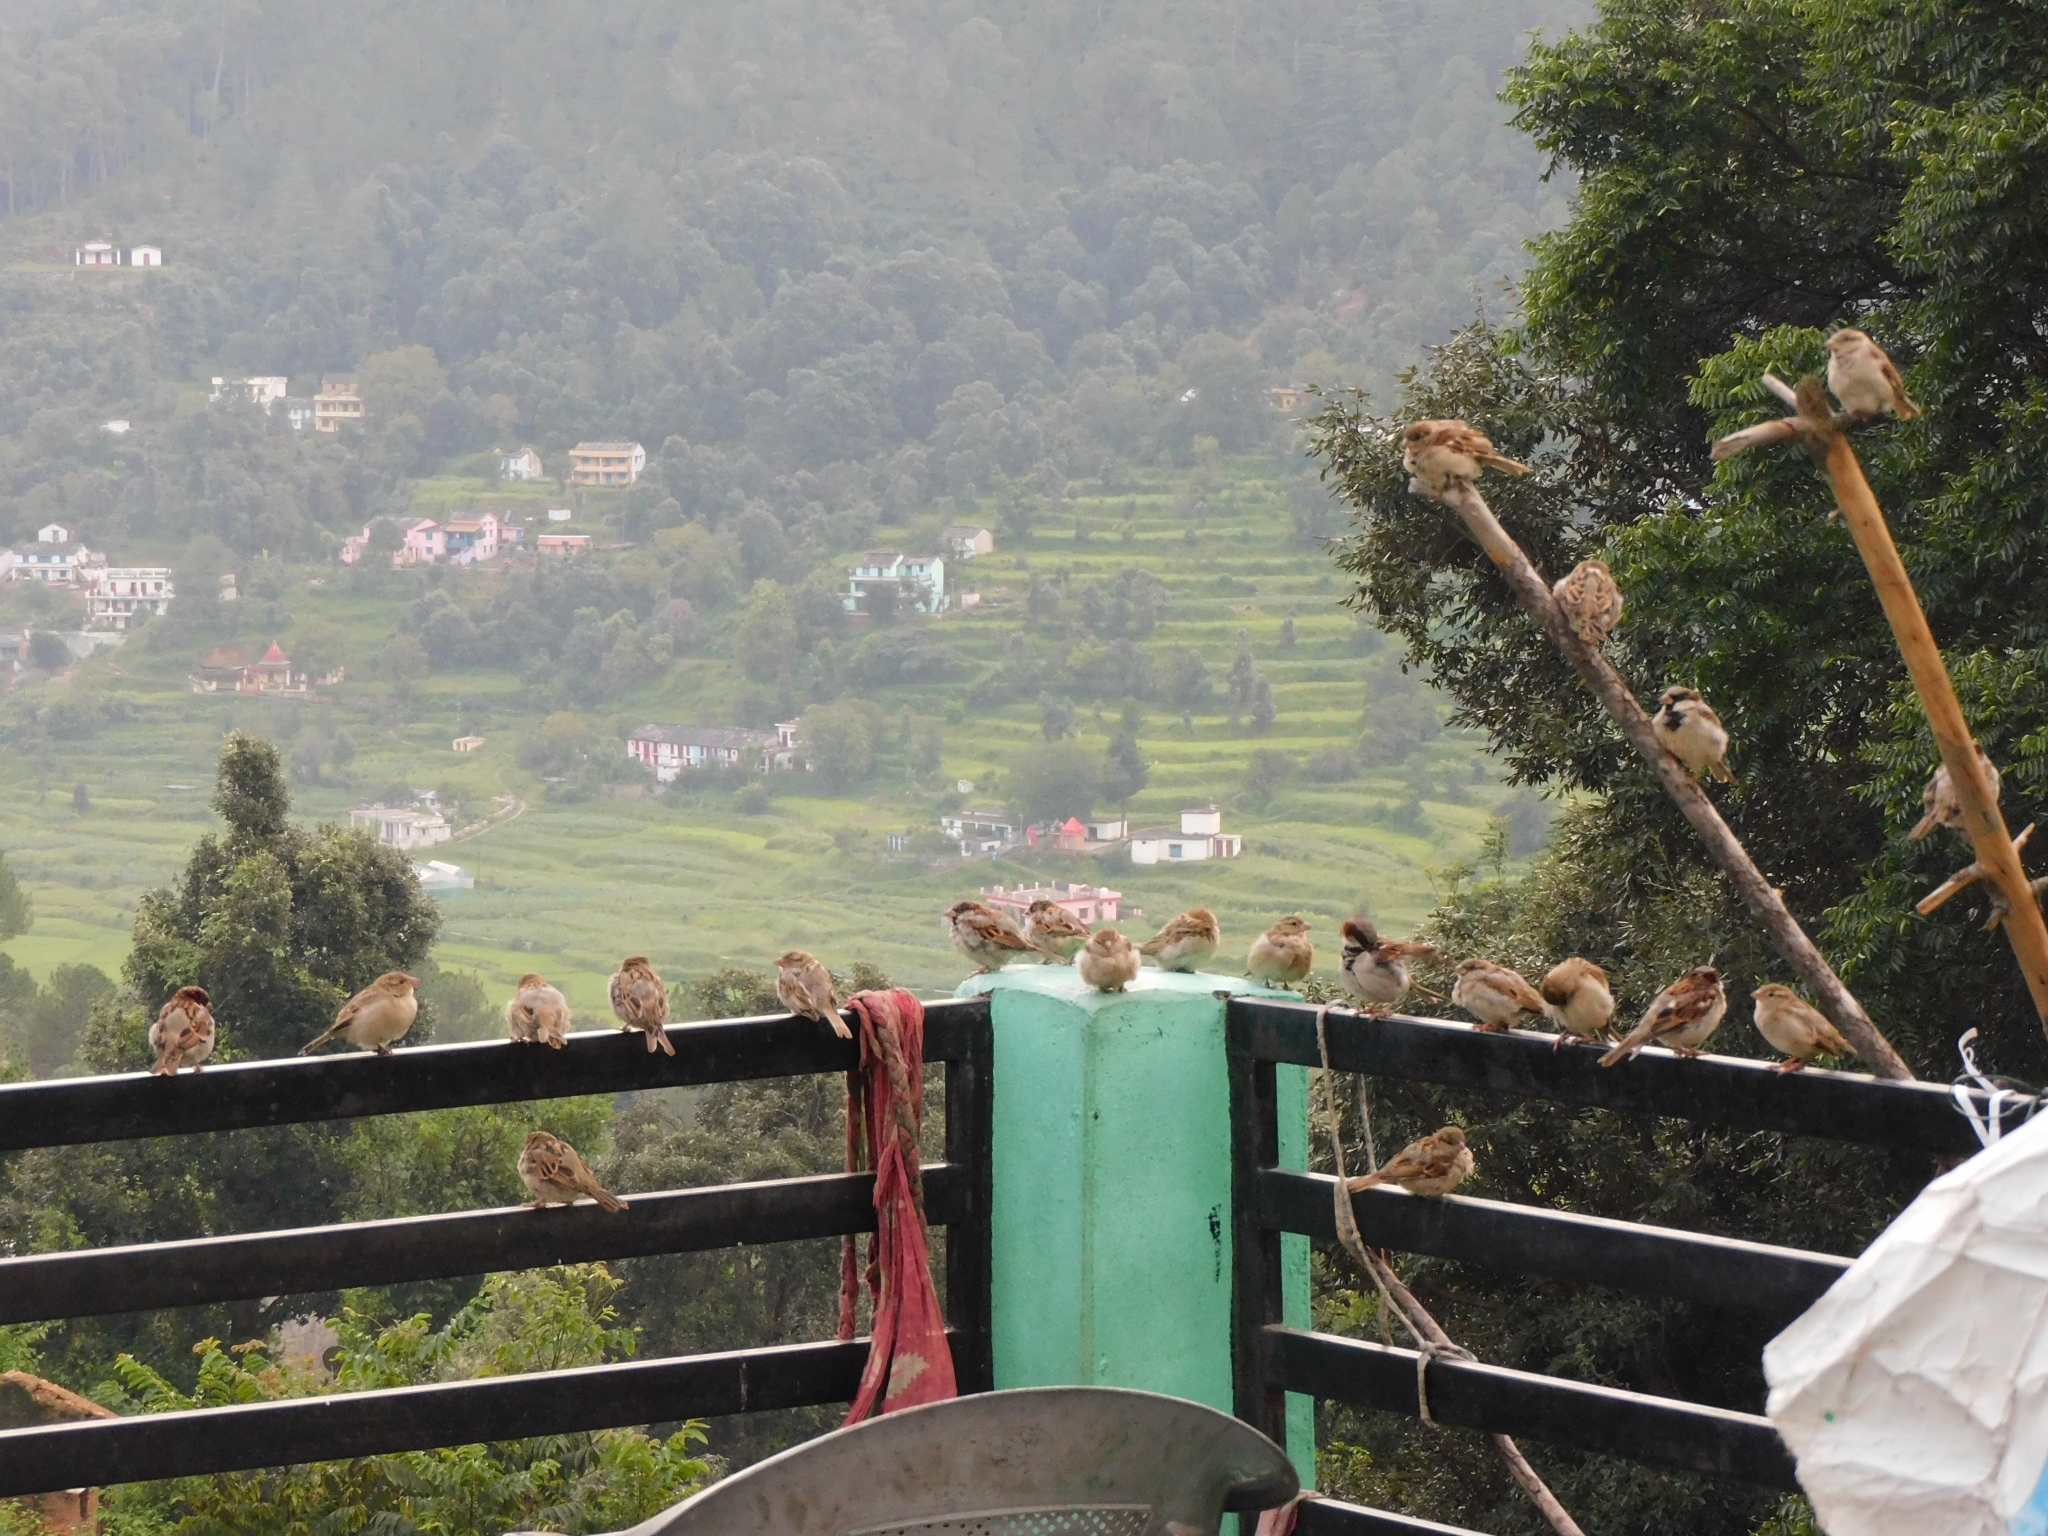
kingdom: Animalia
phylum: Chordata
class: Aves
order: Passeriformes
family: Passeridae
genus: Passer
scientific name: Passer domesticus
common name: House sparrow
